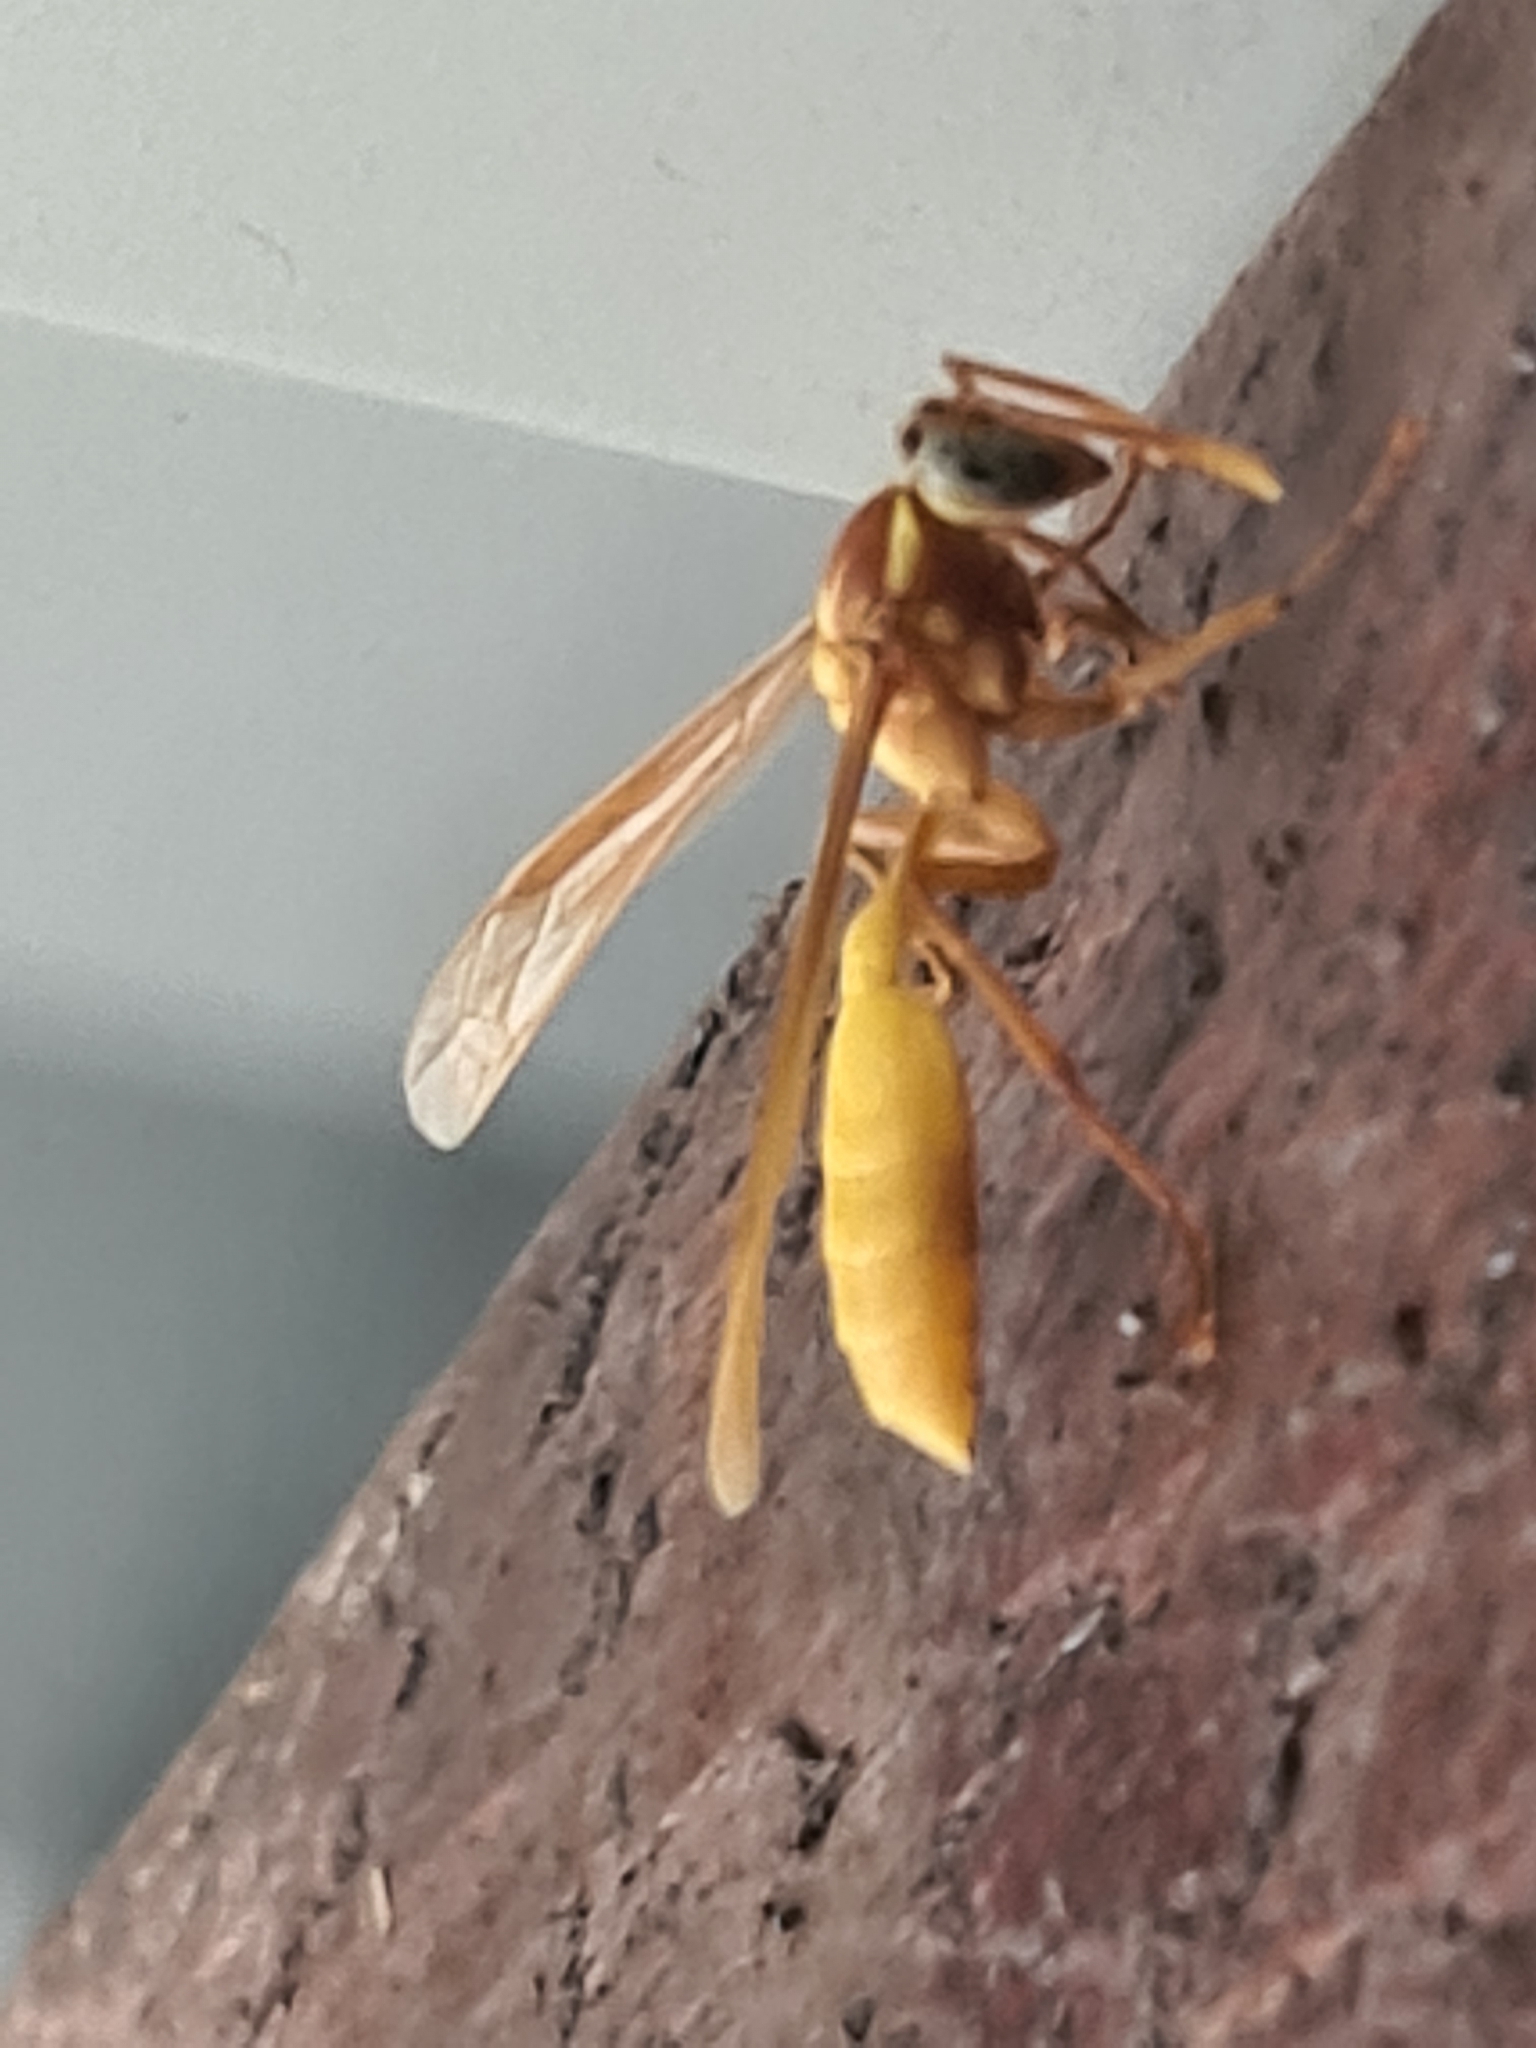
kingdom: Animalia
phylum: Arthropoda
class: Insecta
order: Hymenoptera
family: Vespidae
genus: Apoica
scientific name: Apoica flavissima
